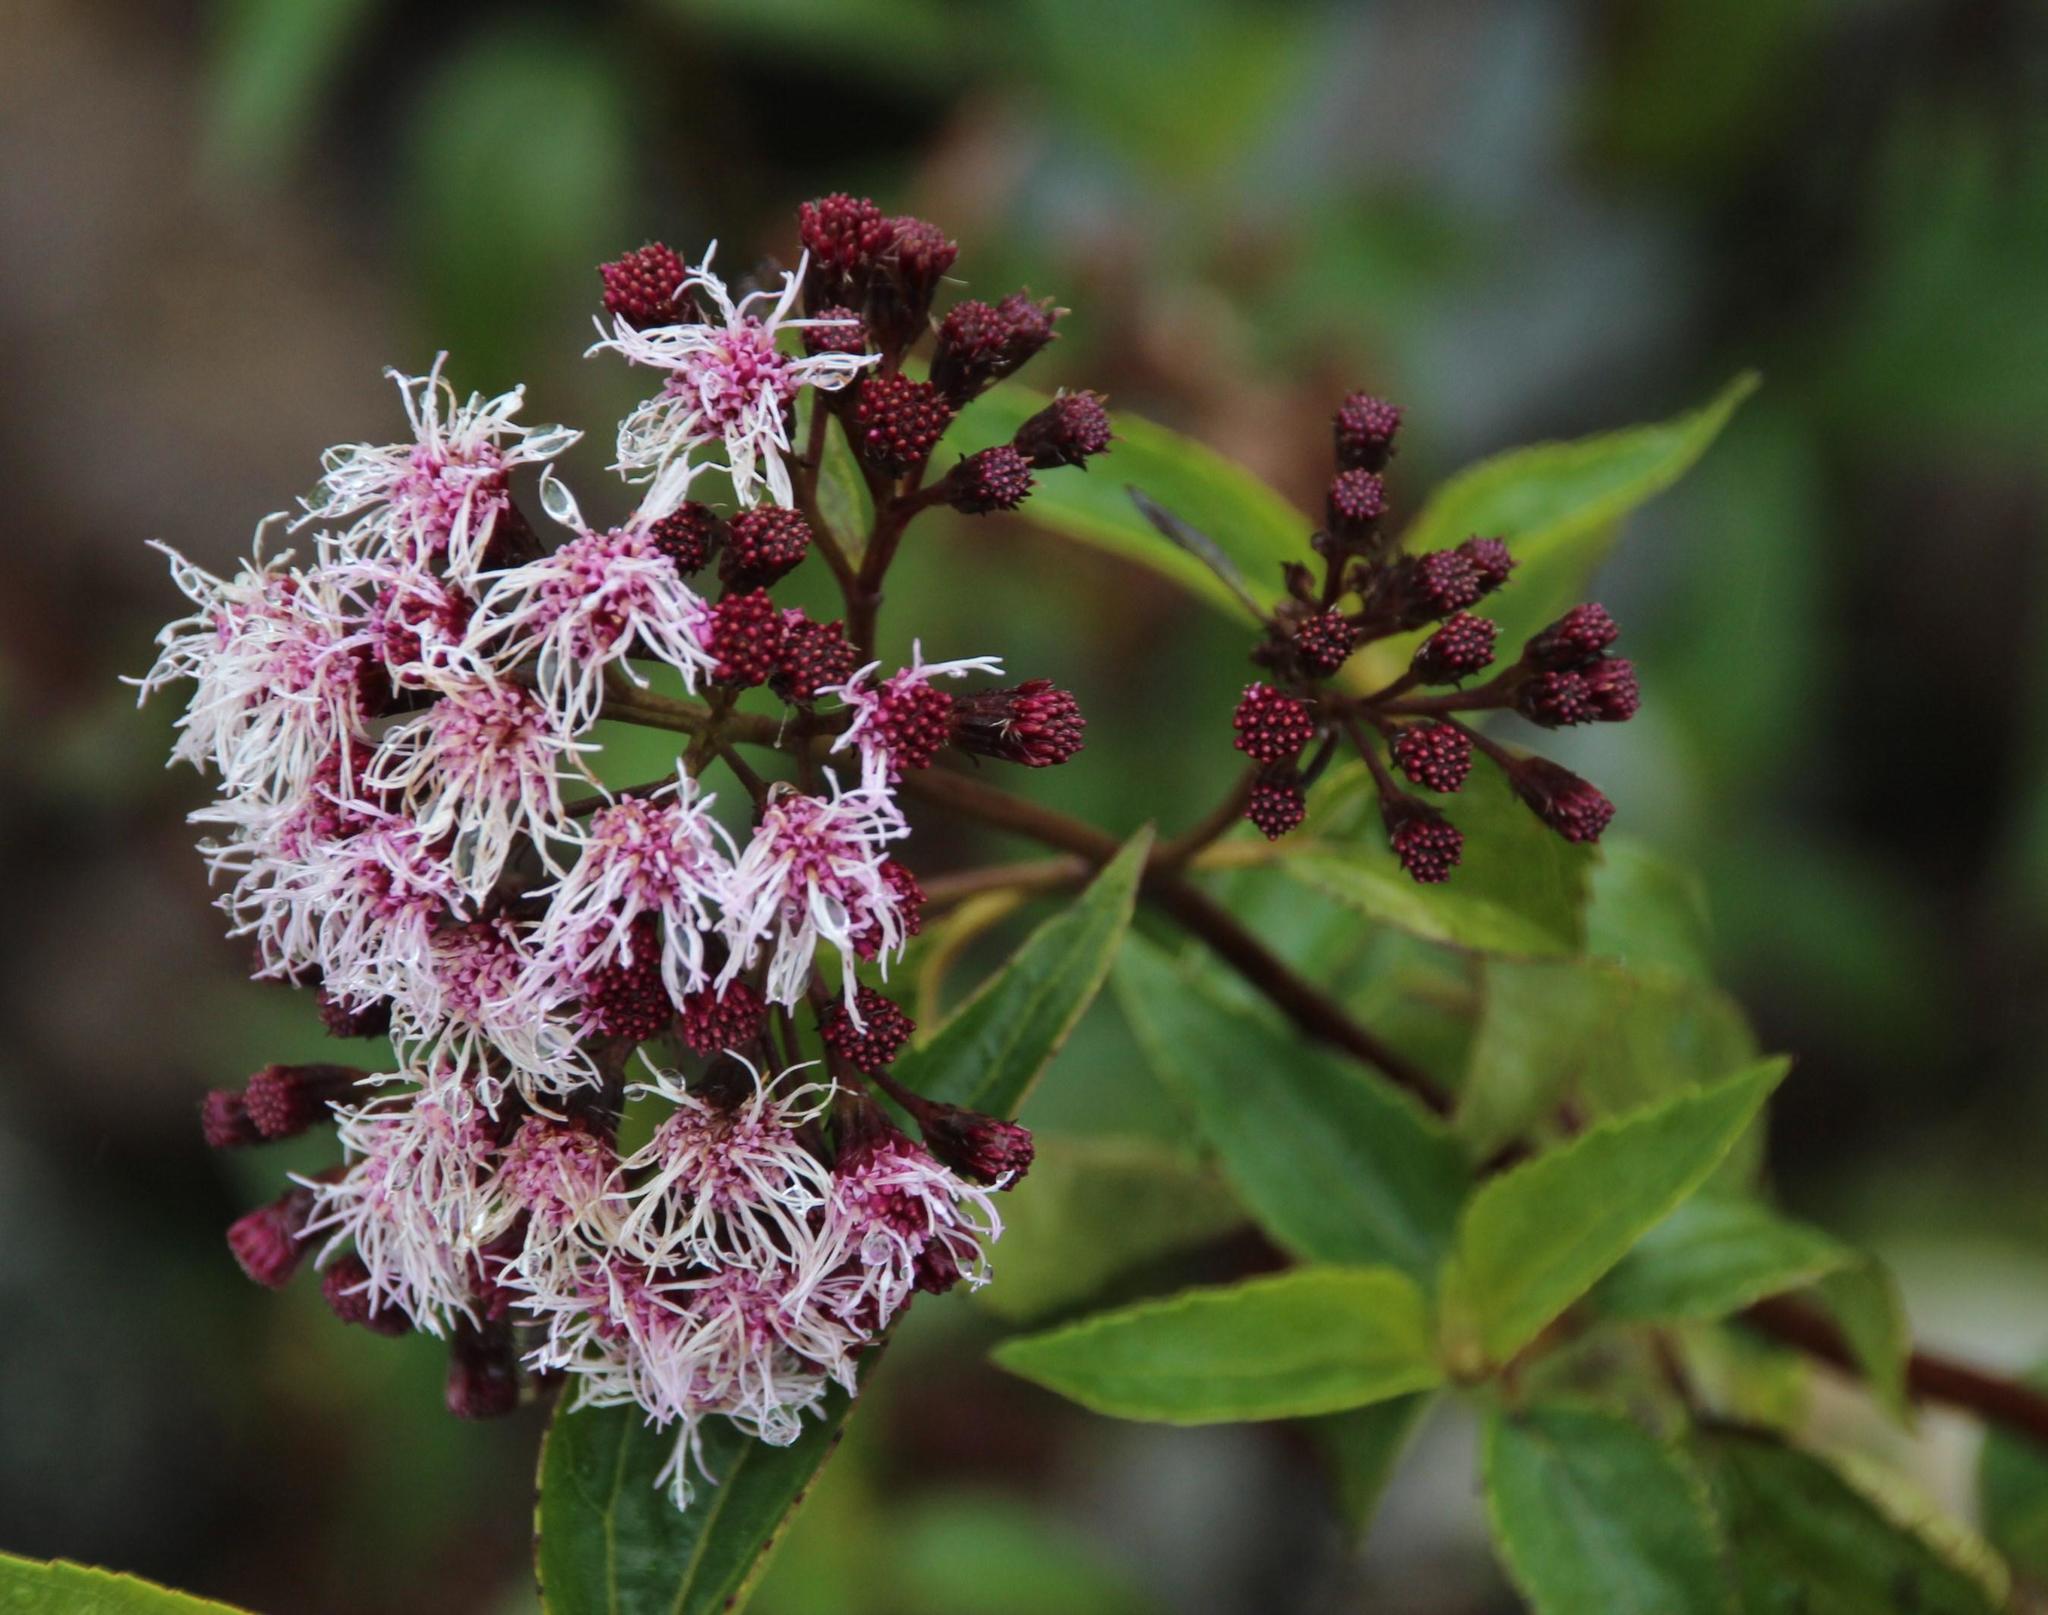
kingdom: Plantae
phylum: Tracheophyta
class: Magnoliopsida
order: Asterales
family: Asteraceae
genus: Ageratina
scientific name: Ageratina cuzcoensis
